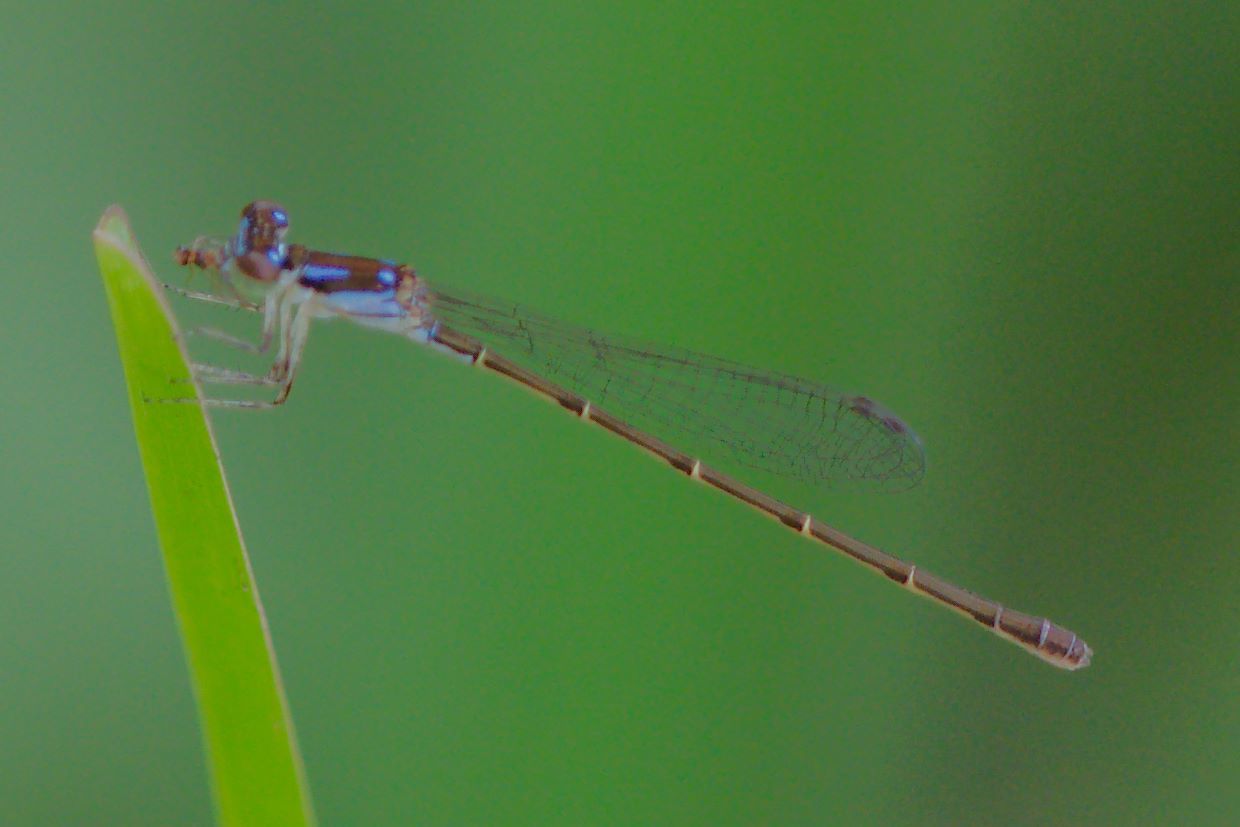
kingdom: Animalia
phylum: Arthropoda
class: Insecta
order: Odonata
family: Coenagrionidae
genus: Ischnura
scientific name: Ischnura posita
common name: Fragile forktail
